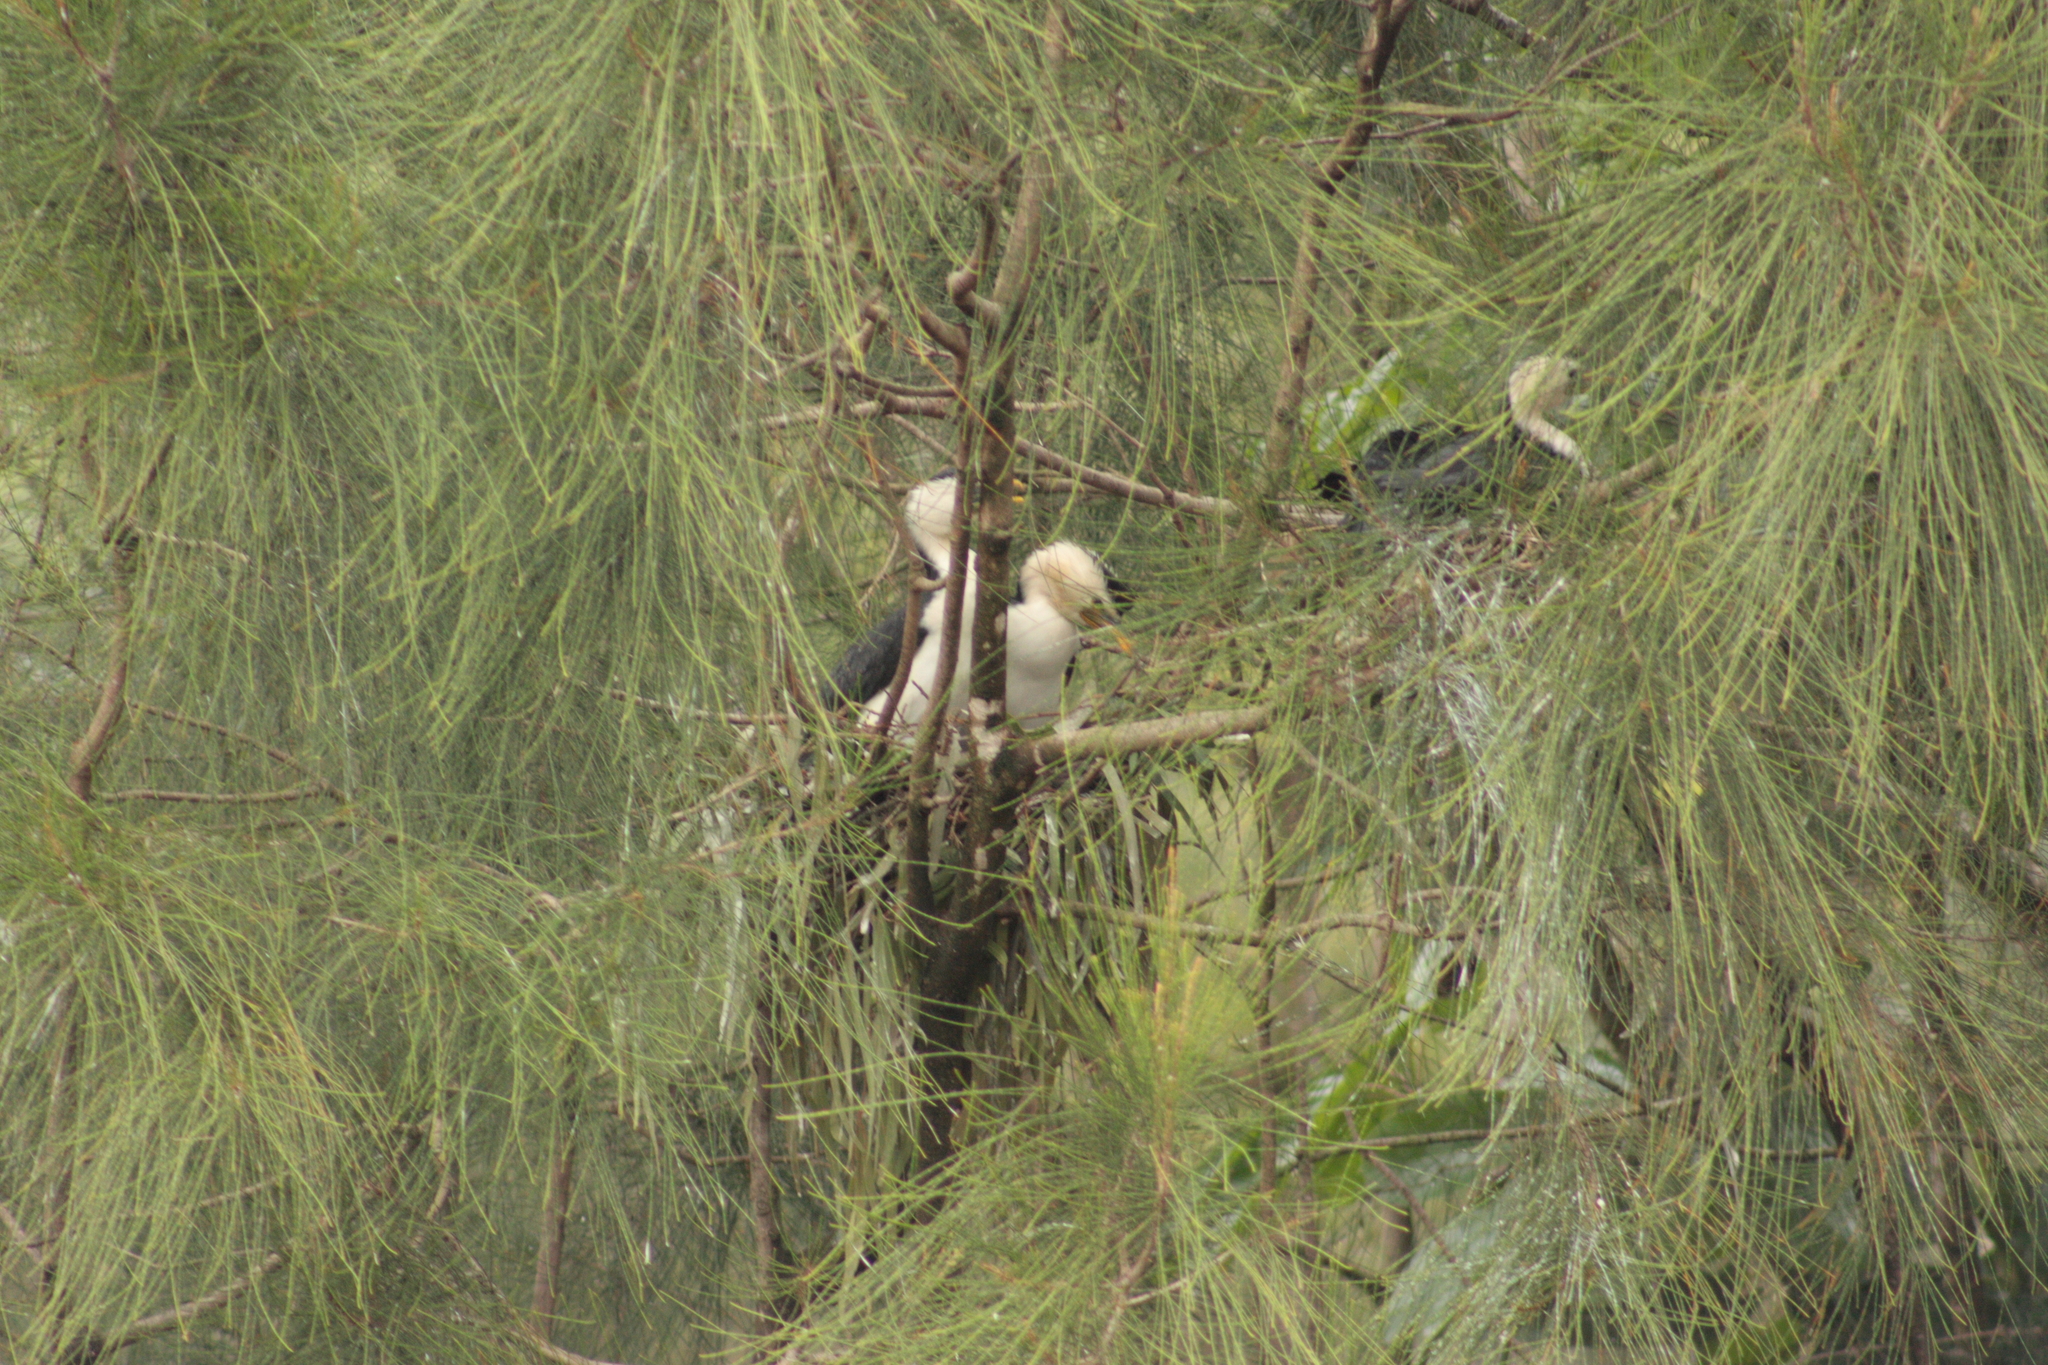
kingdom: Animalia
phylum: Chordata
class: Aves
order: Suliformes
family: Phalacrocoracidae
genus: Microcarbo
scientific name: Microcarbo melanoleucos
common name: Little pied cormorant
